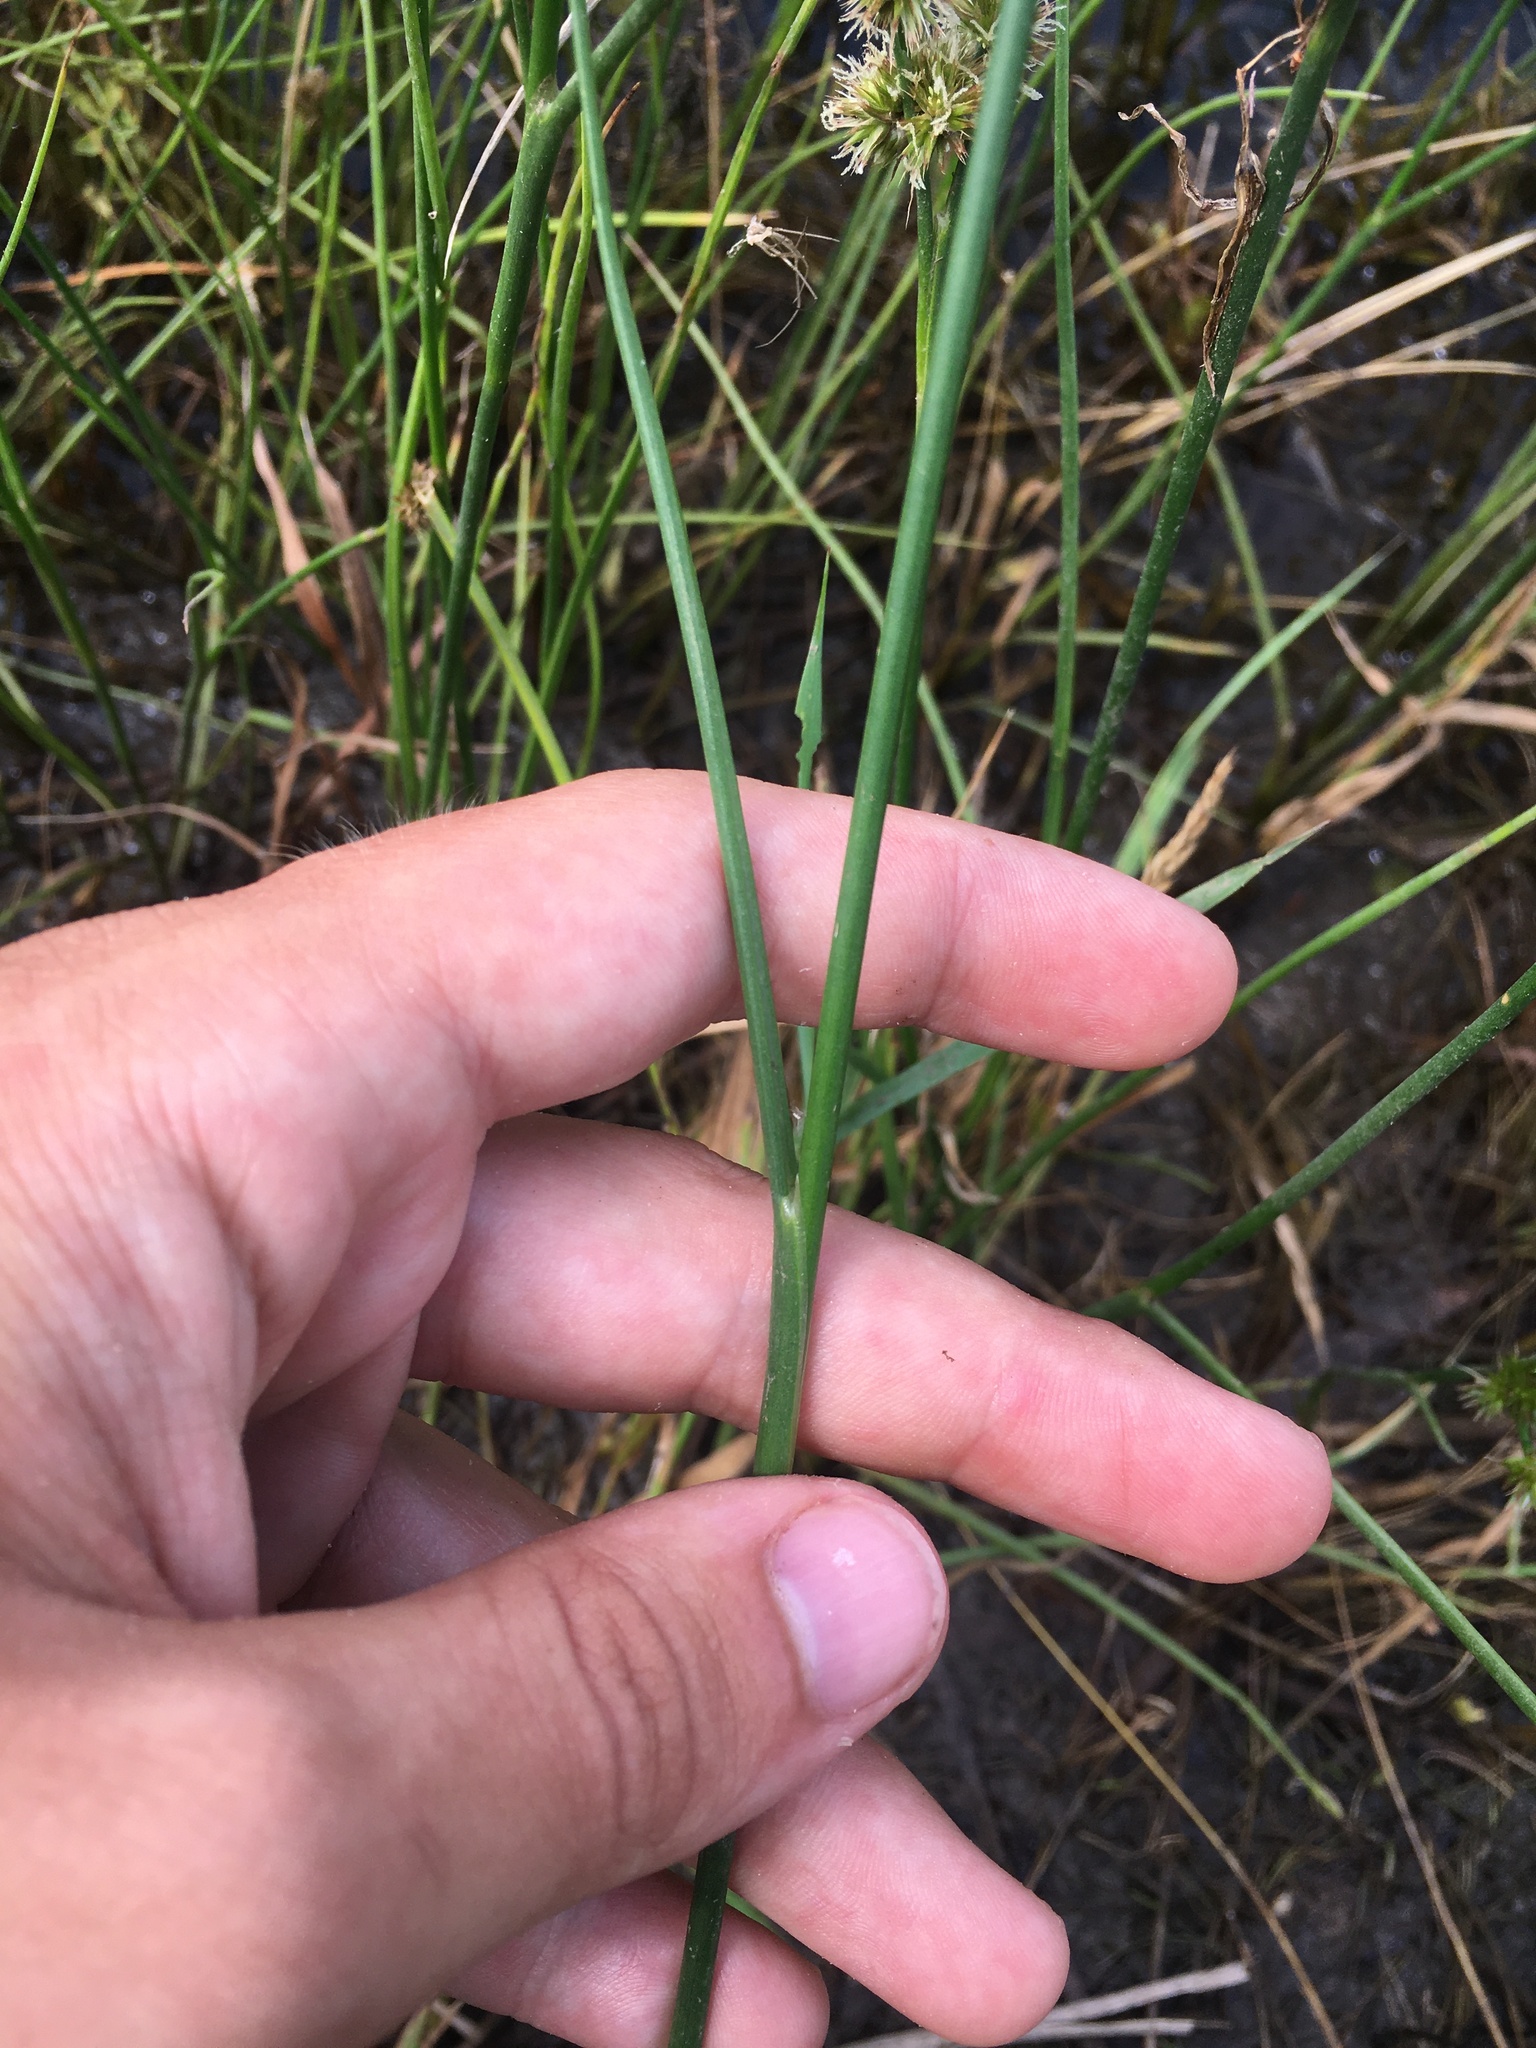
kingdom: Plantae
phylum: Tracheophyta
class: Liliopsida
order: Poales
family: Juncaceae
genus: Juncus
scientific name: Juncus torreyi
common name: Torrey's rush
